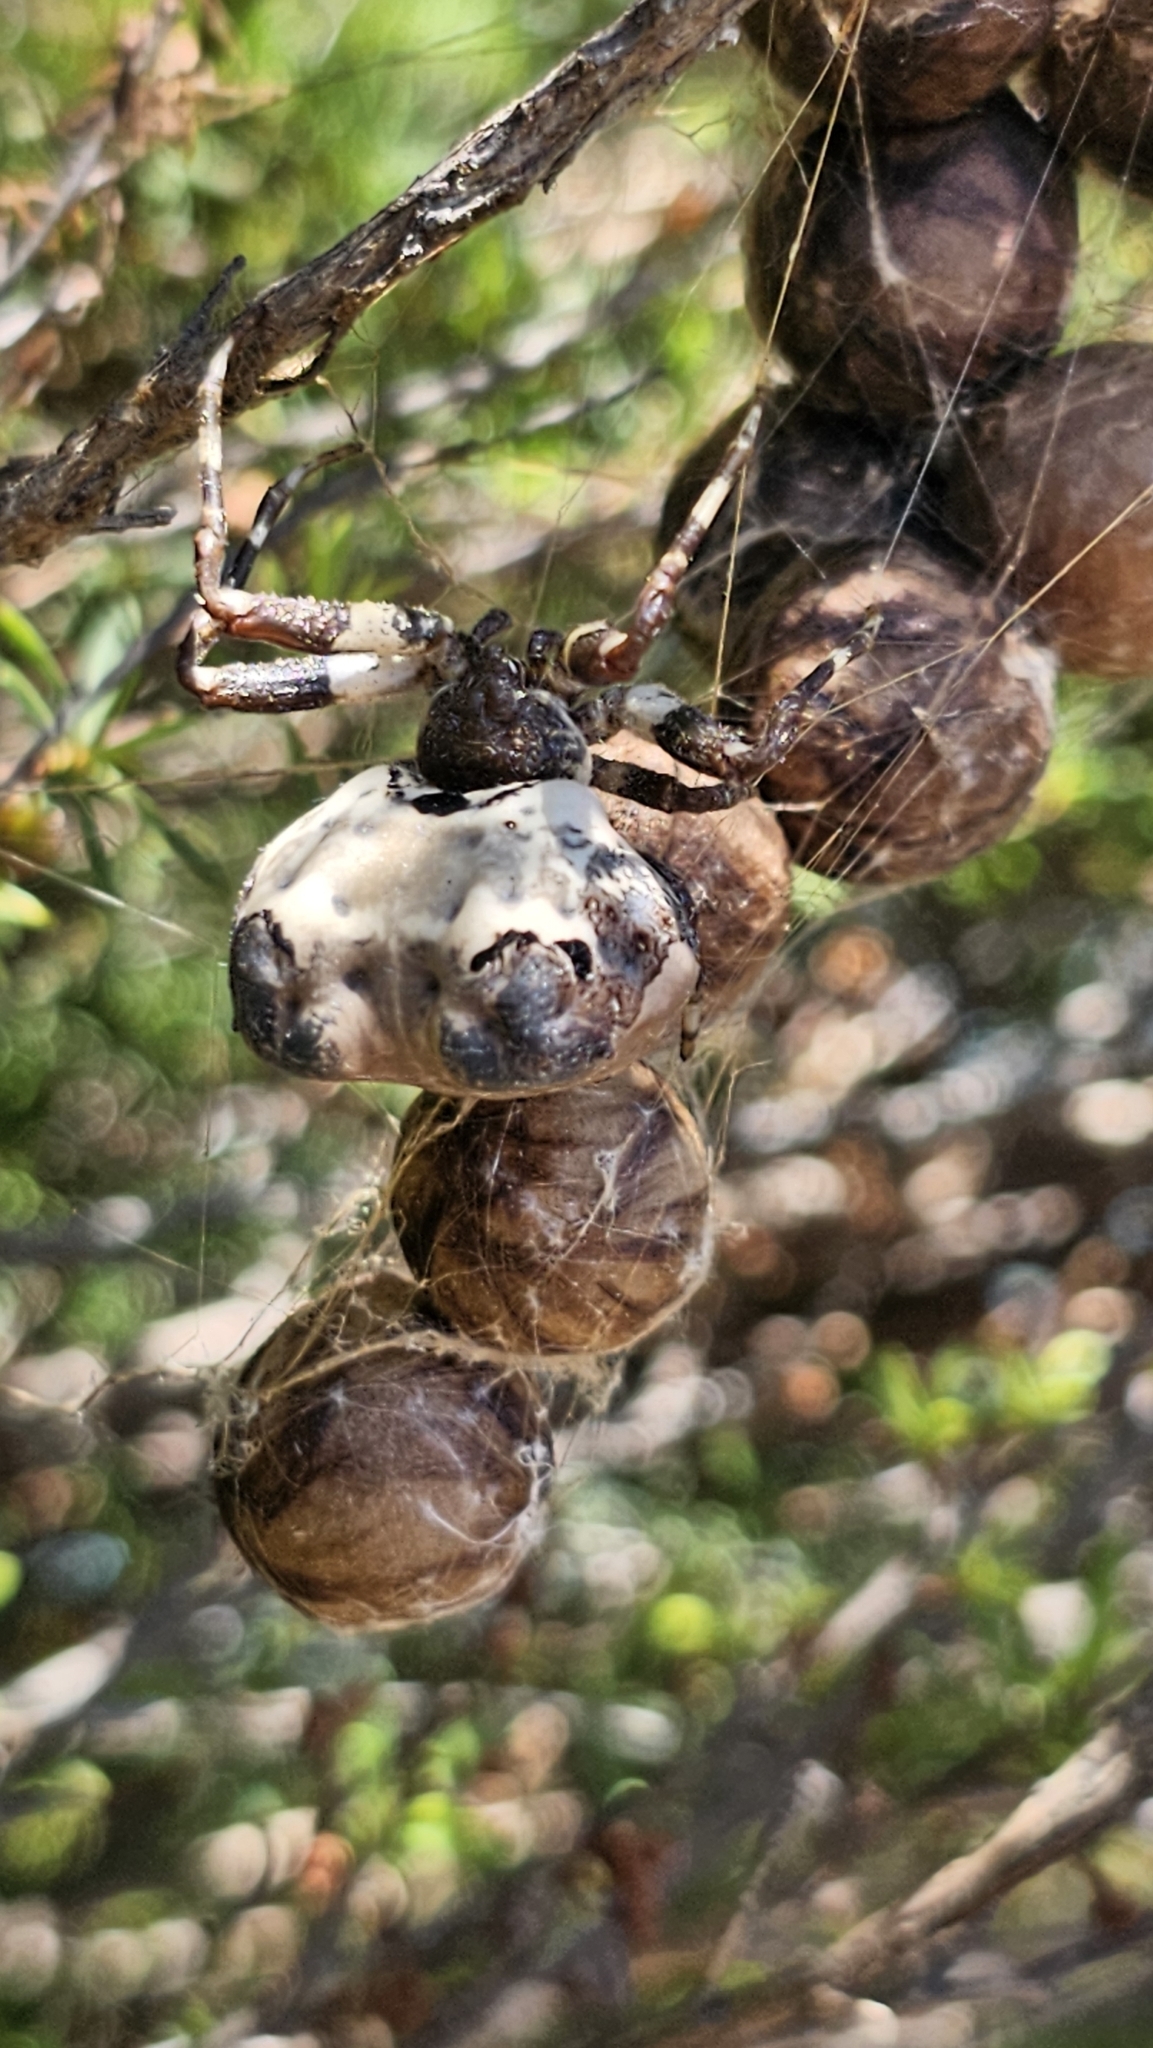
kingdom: Animalia
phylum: Arthropoda
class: Arachnida
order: Araneae
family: Araneidae
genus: Celaenia
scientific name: Celaenia excavata
